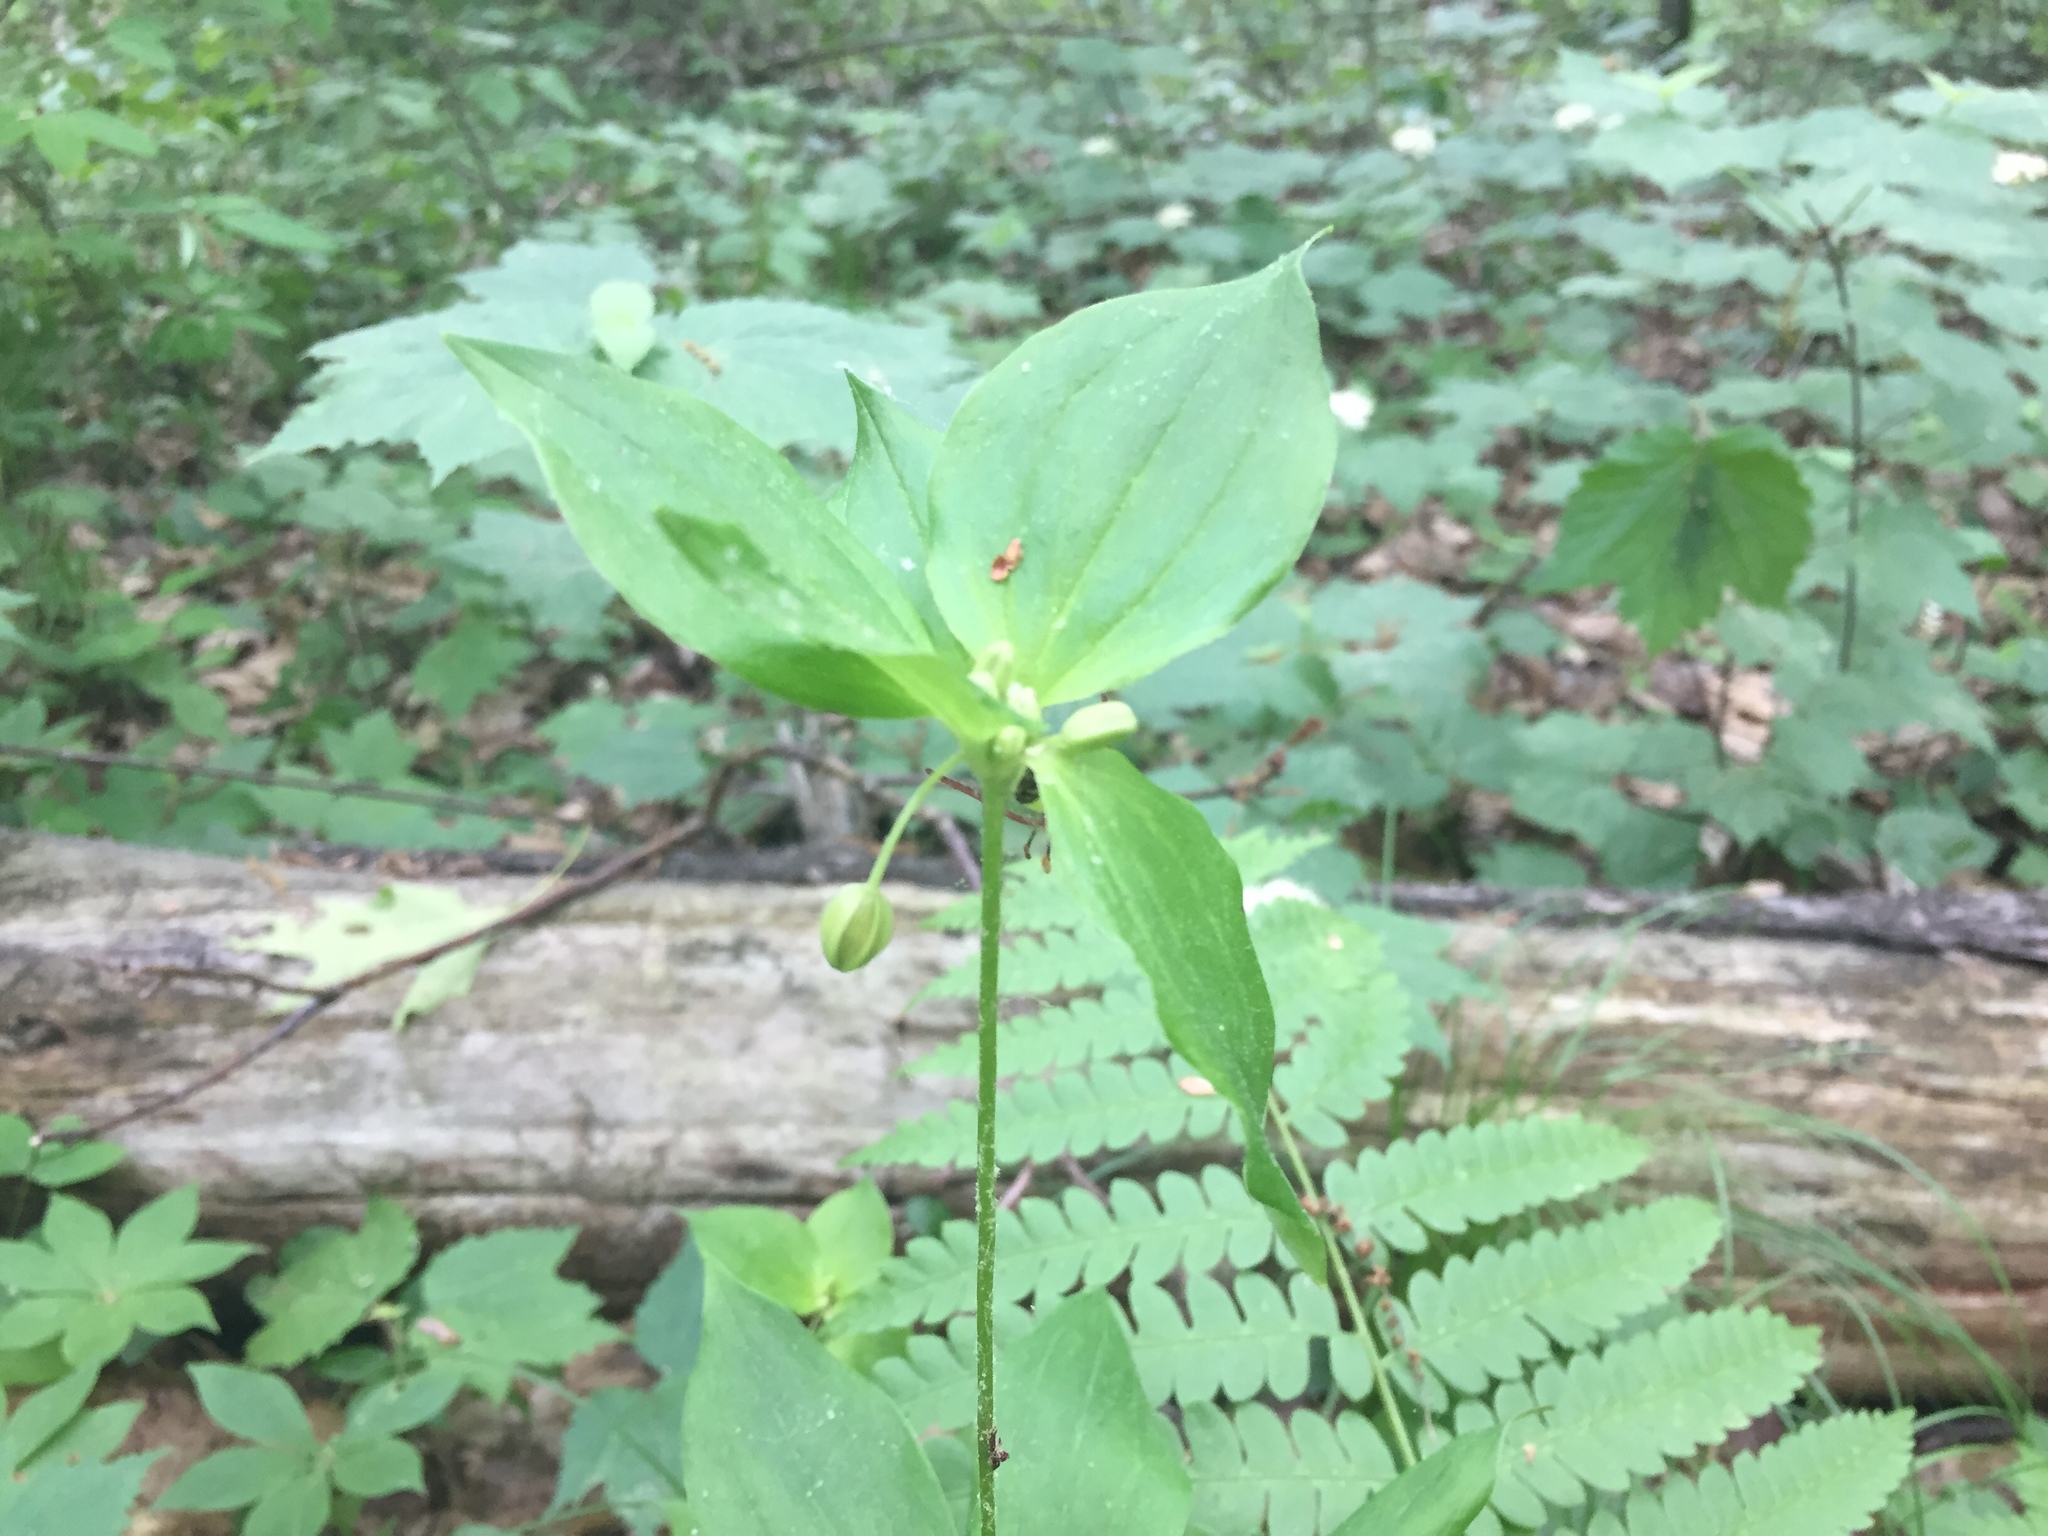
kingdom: Plantae
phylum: Tracheophyta
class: Liliopsida
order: Liliales
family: Liliaceae
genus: Medeola
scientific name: Medeola virginiana
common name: Indian cucumber-root
